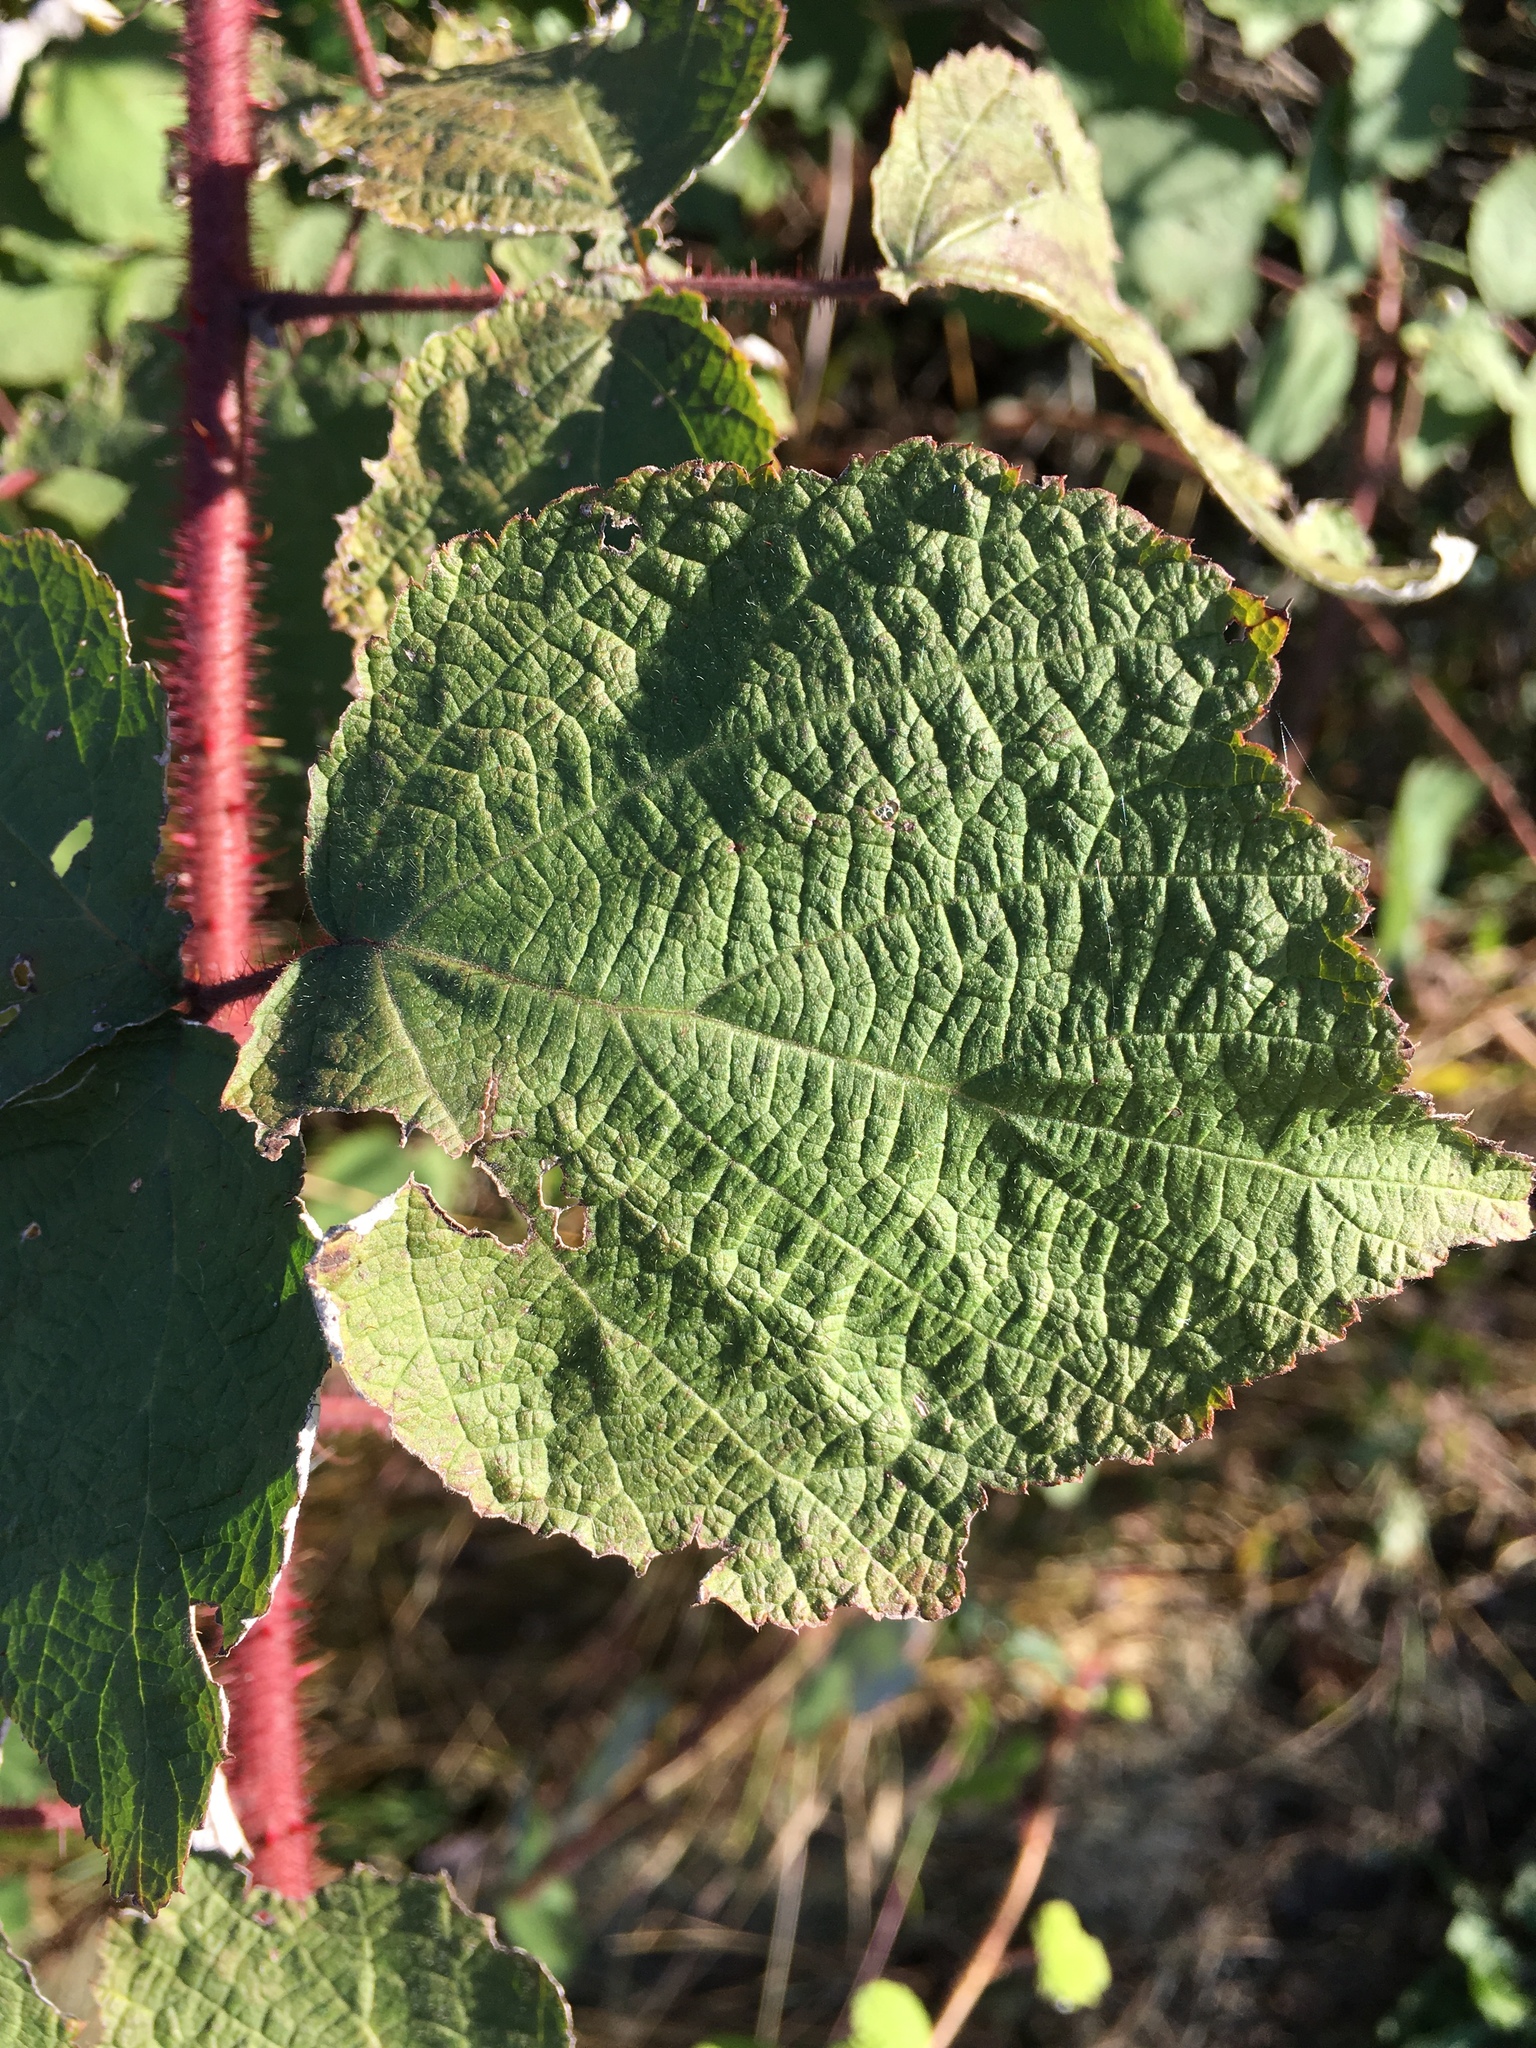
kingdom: Plantae
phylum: Tracheophyta
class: Magnoliopsida
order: Rosales
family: Rosaceae
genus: Rubus
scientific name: Rubus phoenicolasius
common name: Japanese wineberry
